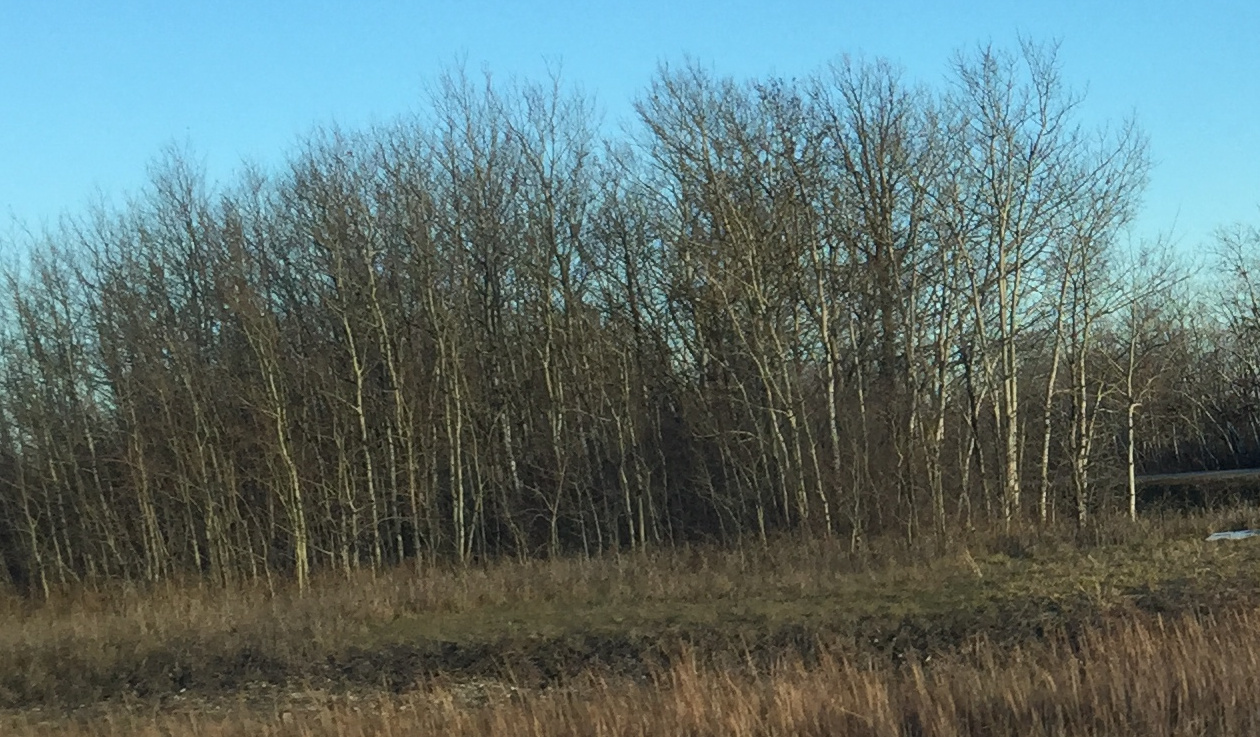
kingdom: Plantae
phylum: Tracheophyta
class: Magnoliopsida
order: Malpighiales
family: Salicaceae
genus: Populus
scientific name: Populus tremuloides
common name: Quaking aspen
